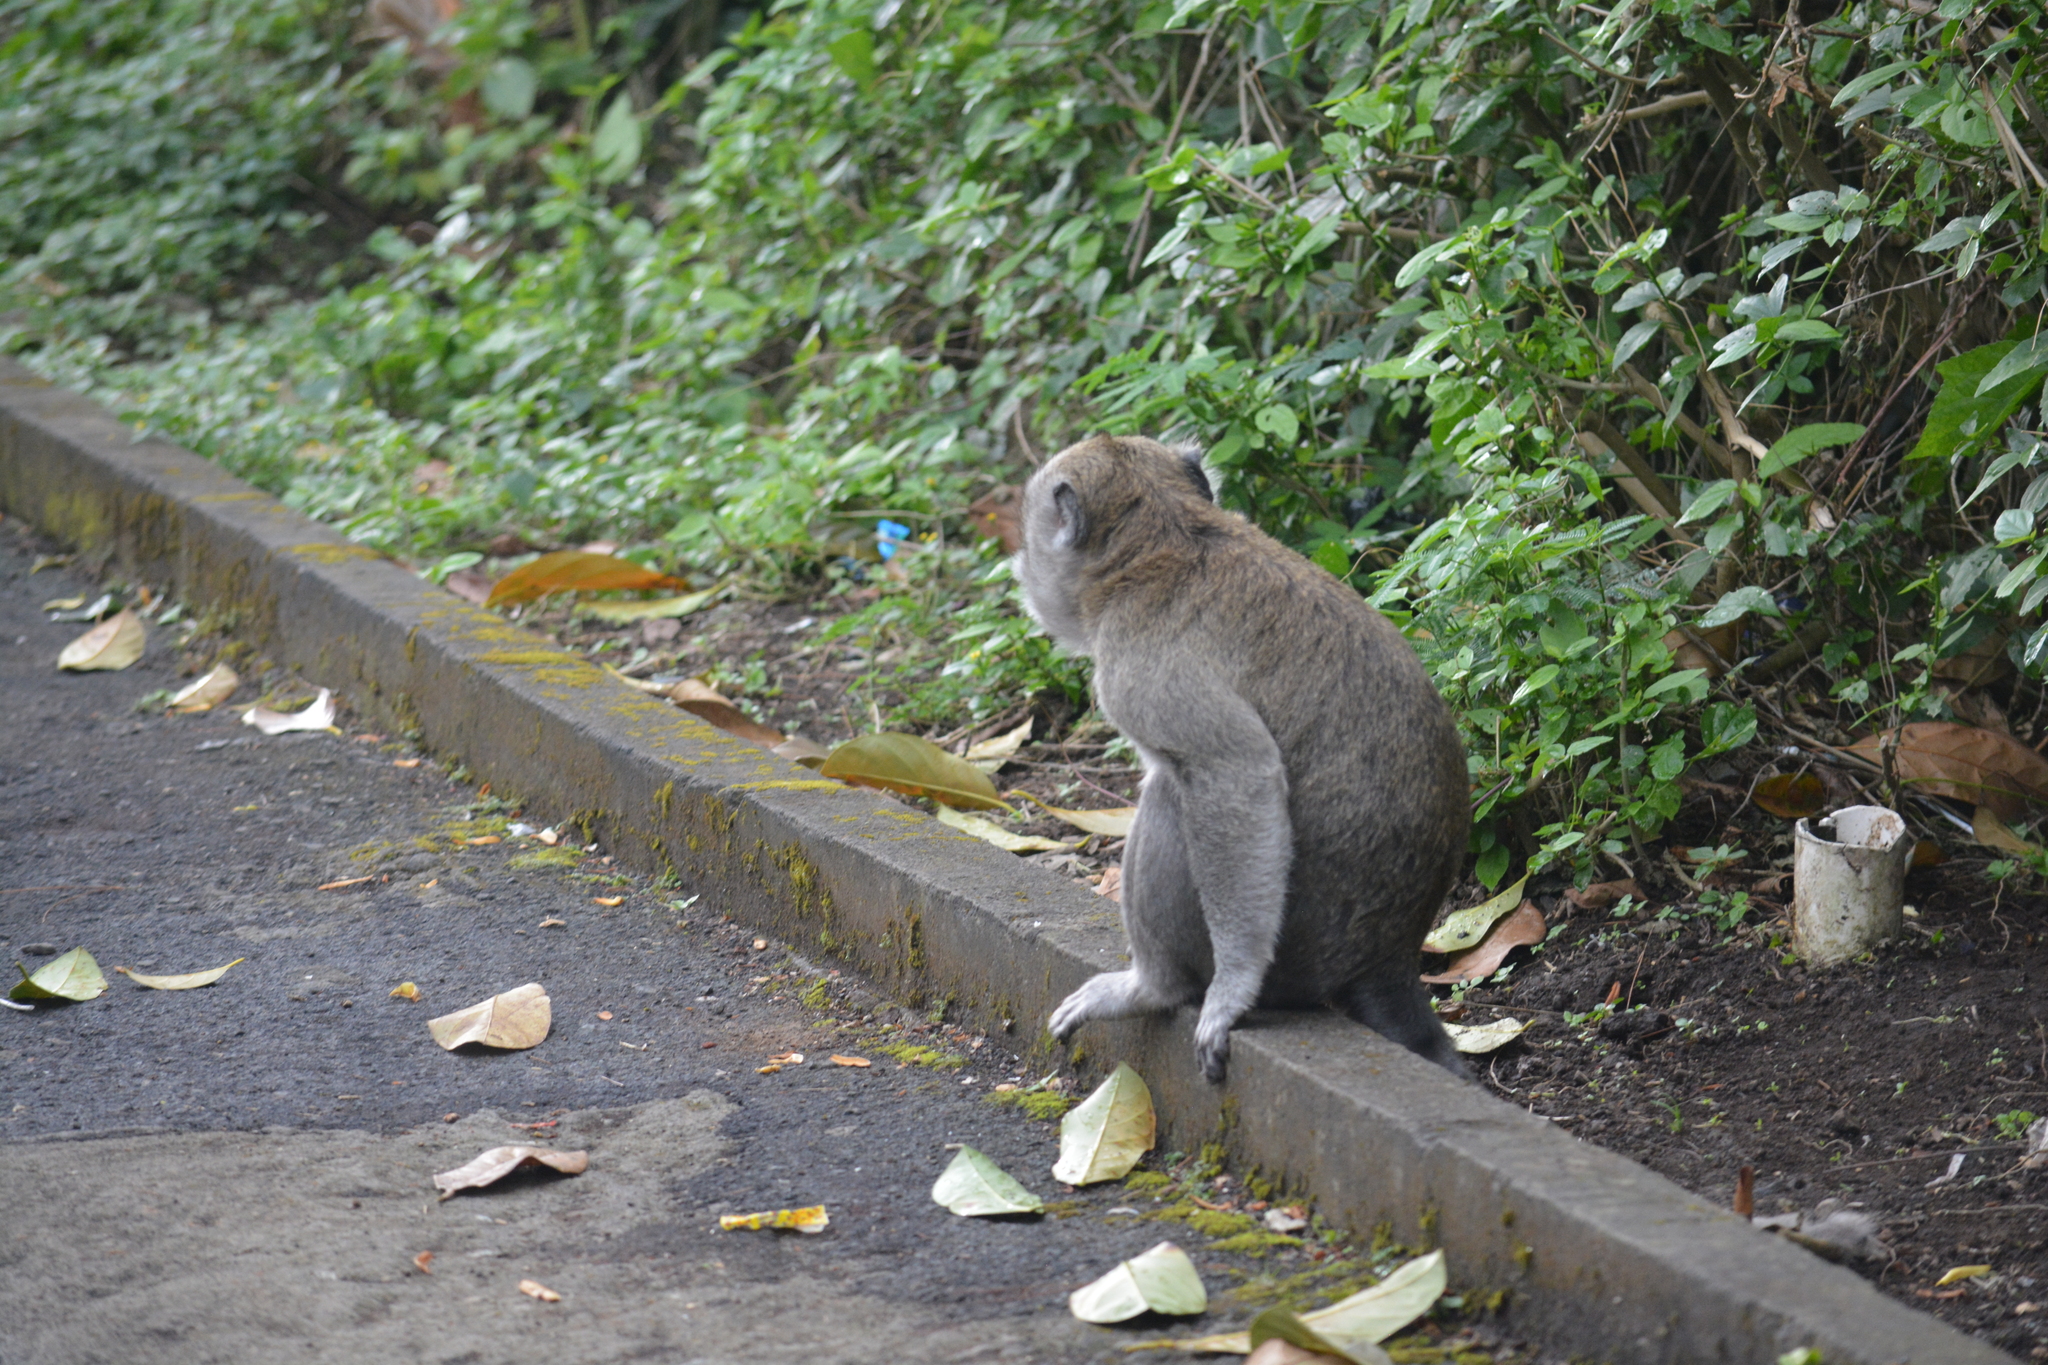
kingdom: Animalia
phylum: Chordata
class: Mammalia
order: Primates
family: Cercopithecidae
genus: Macaca
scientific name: Macaca fascicularis
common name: Crab-eating macaque
